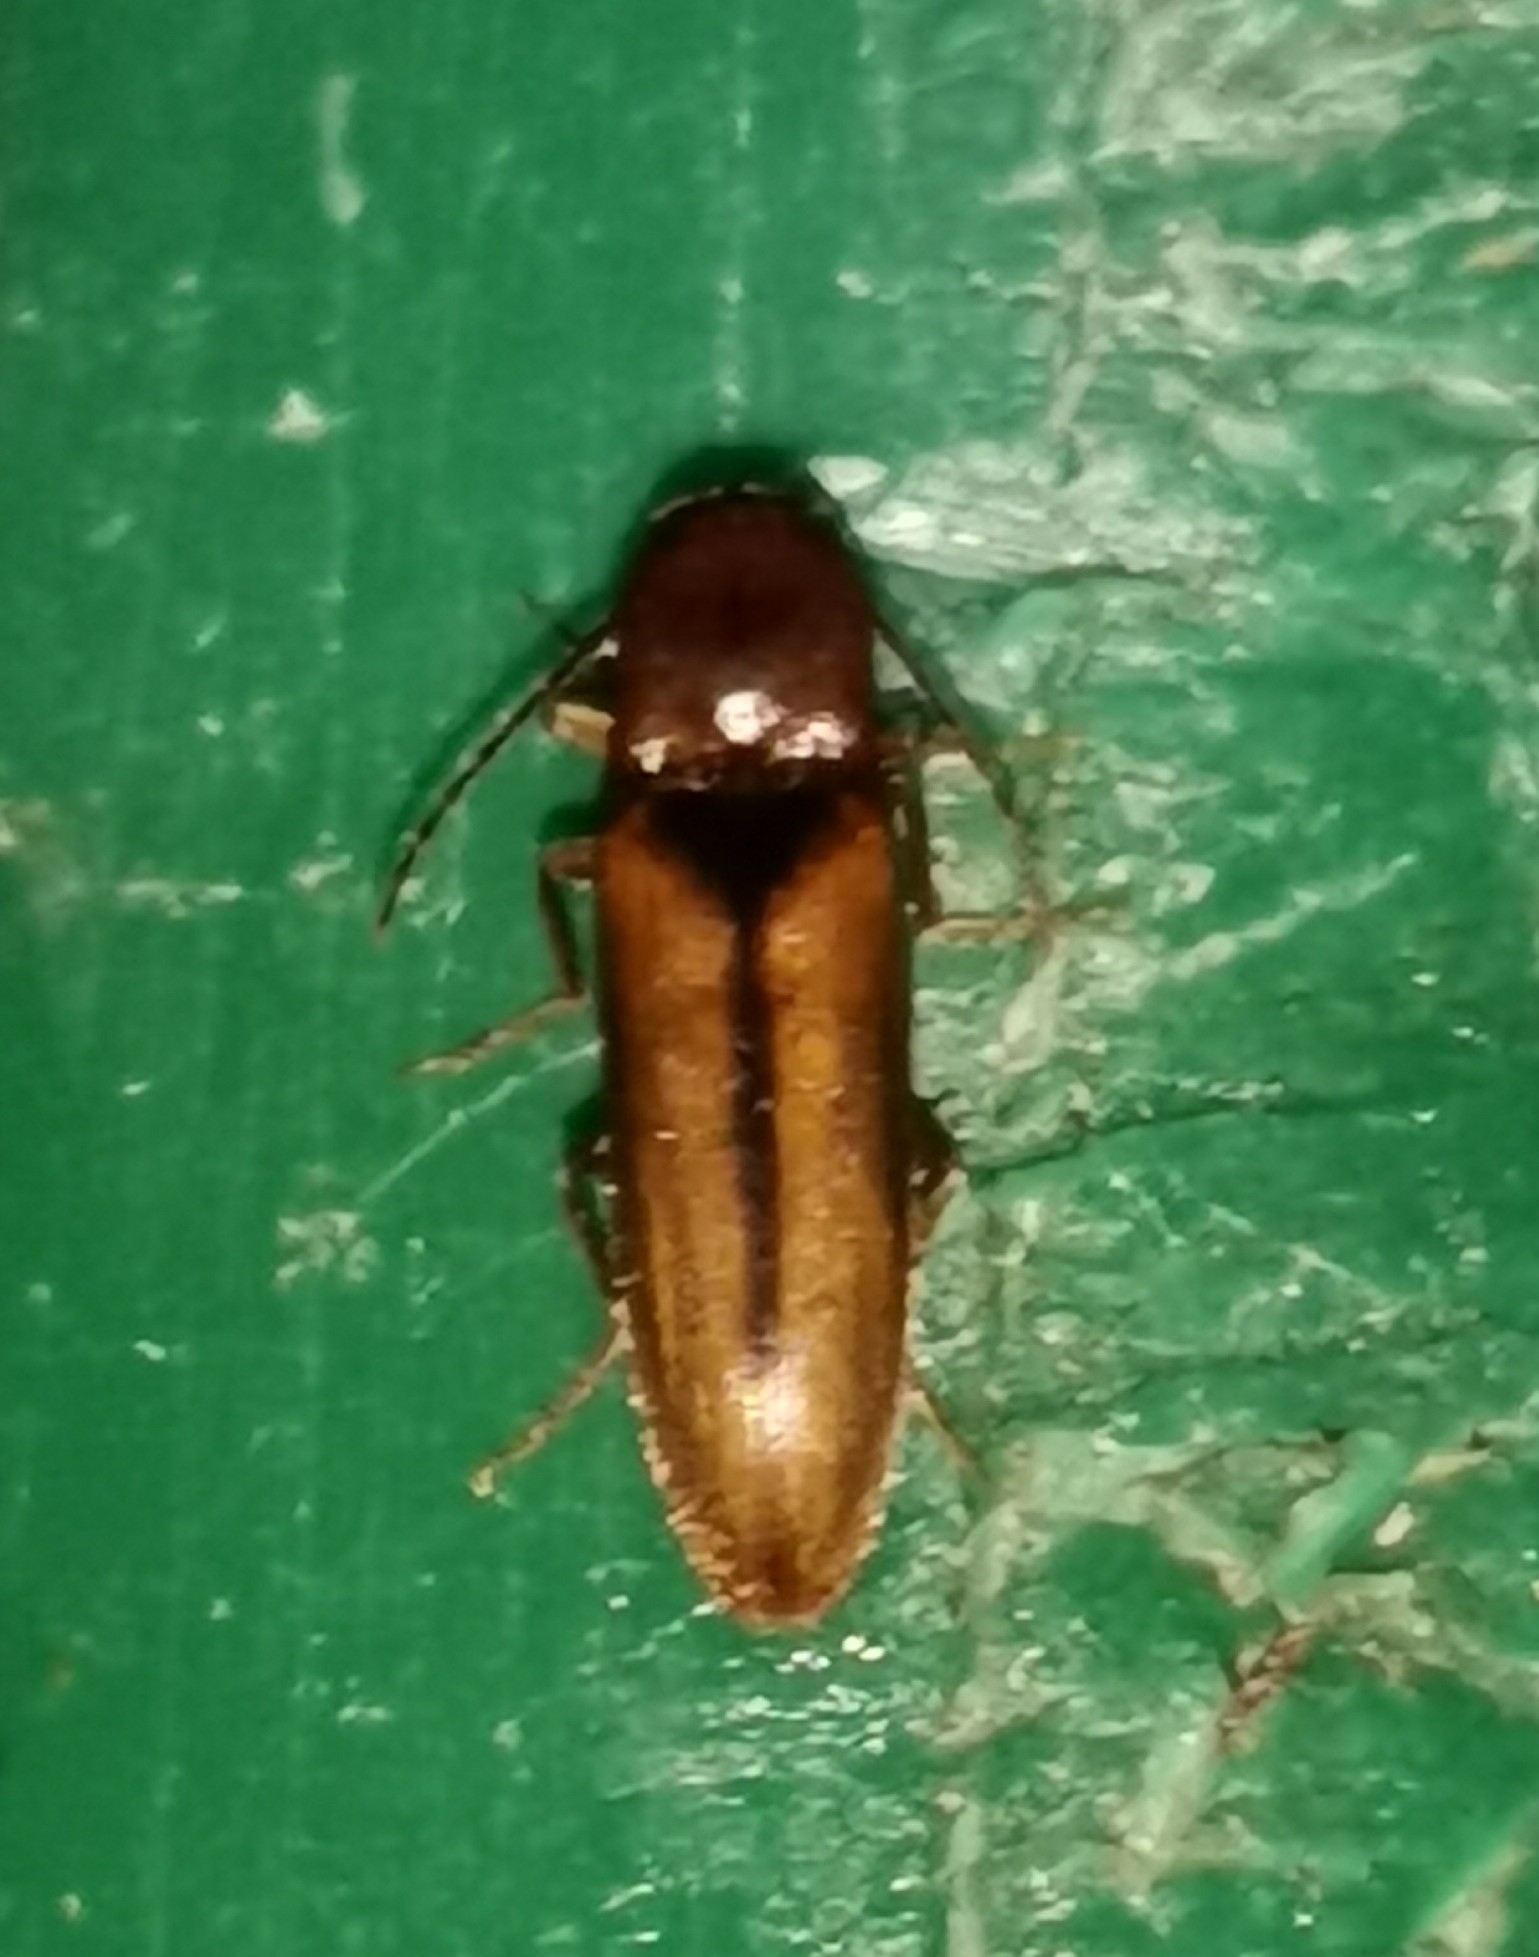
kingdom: Animalia
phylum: Arthropoda
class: Insecta
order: Coleoptera
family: Elateridae
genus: Dalopius
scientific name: Dalopius marginatus
